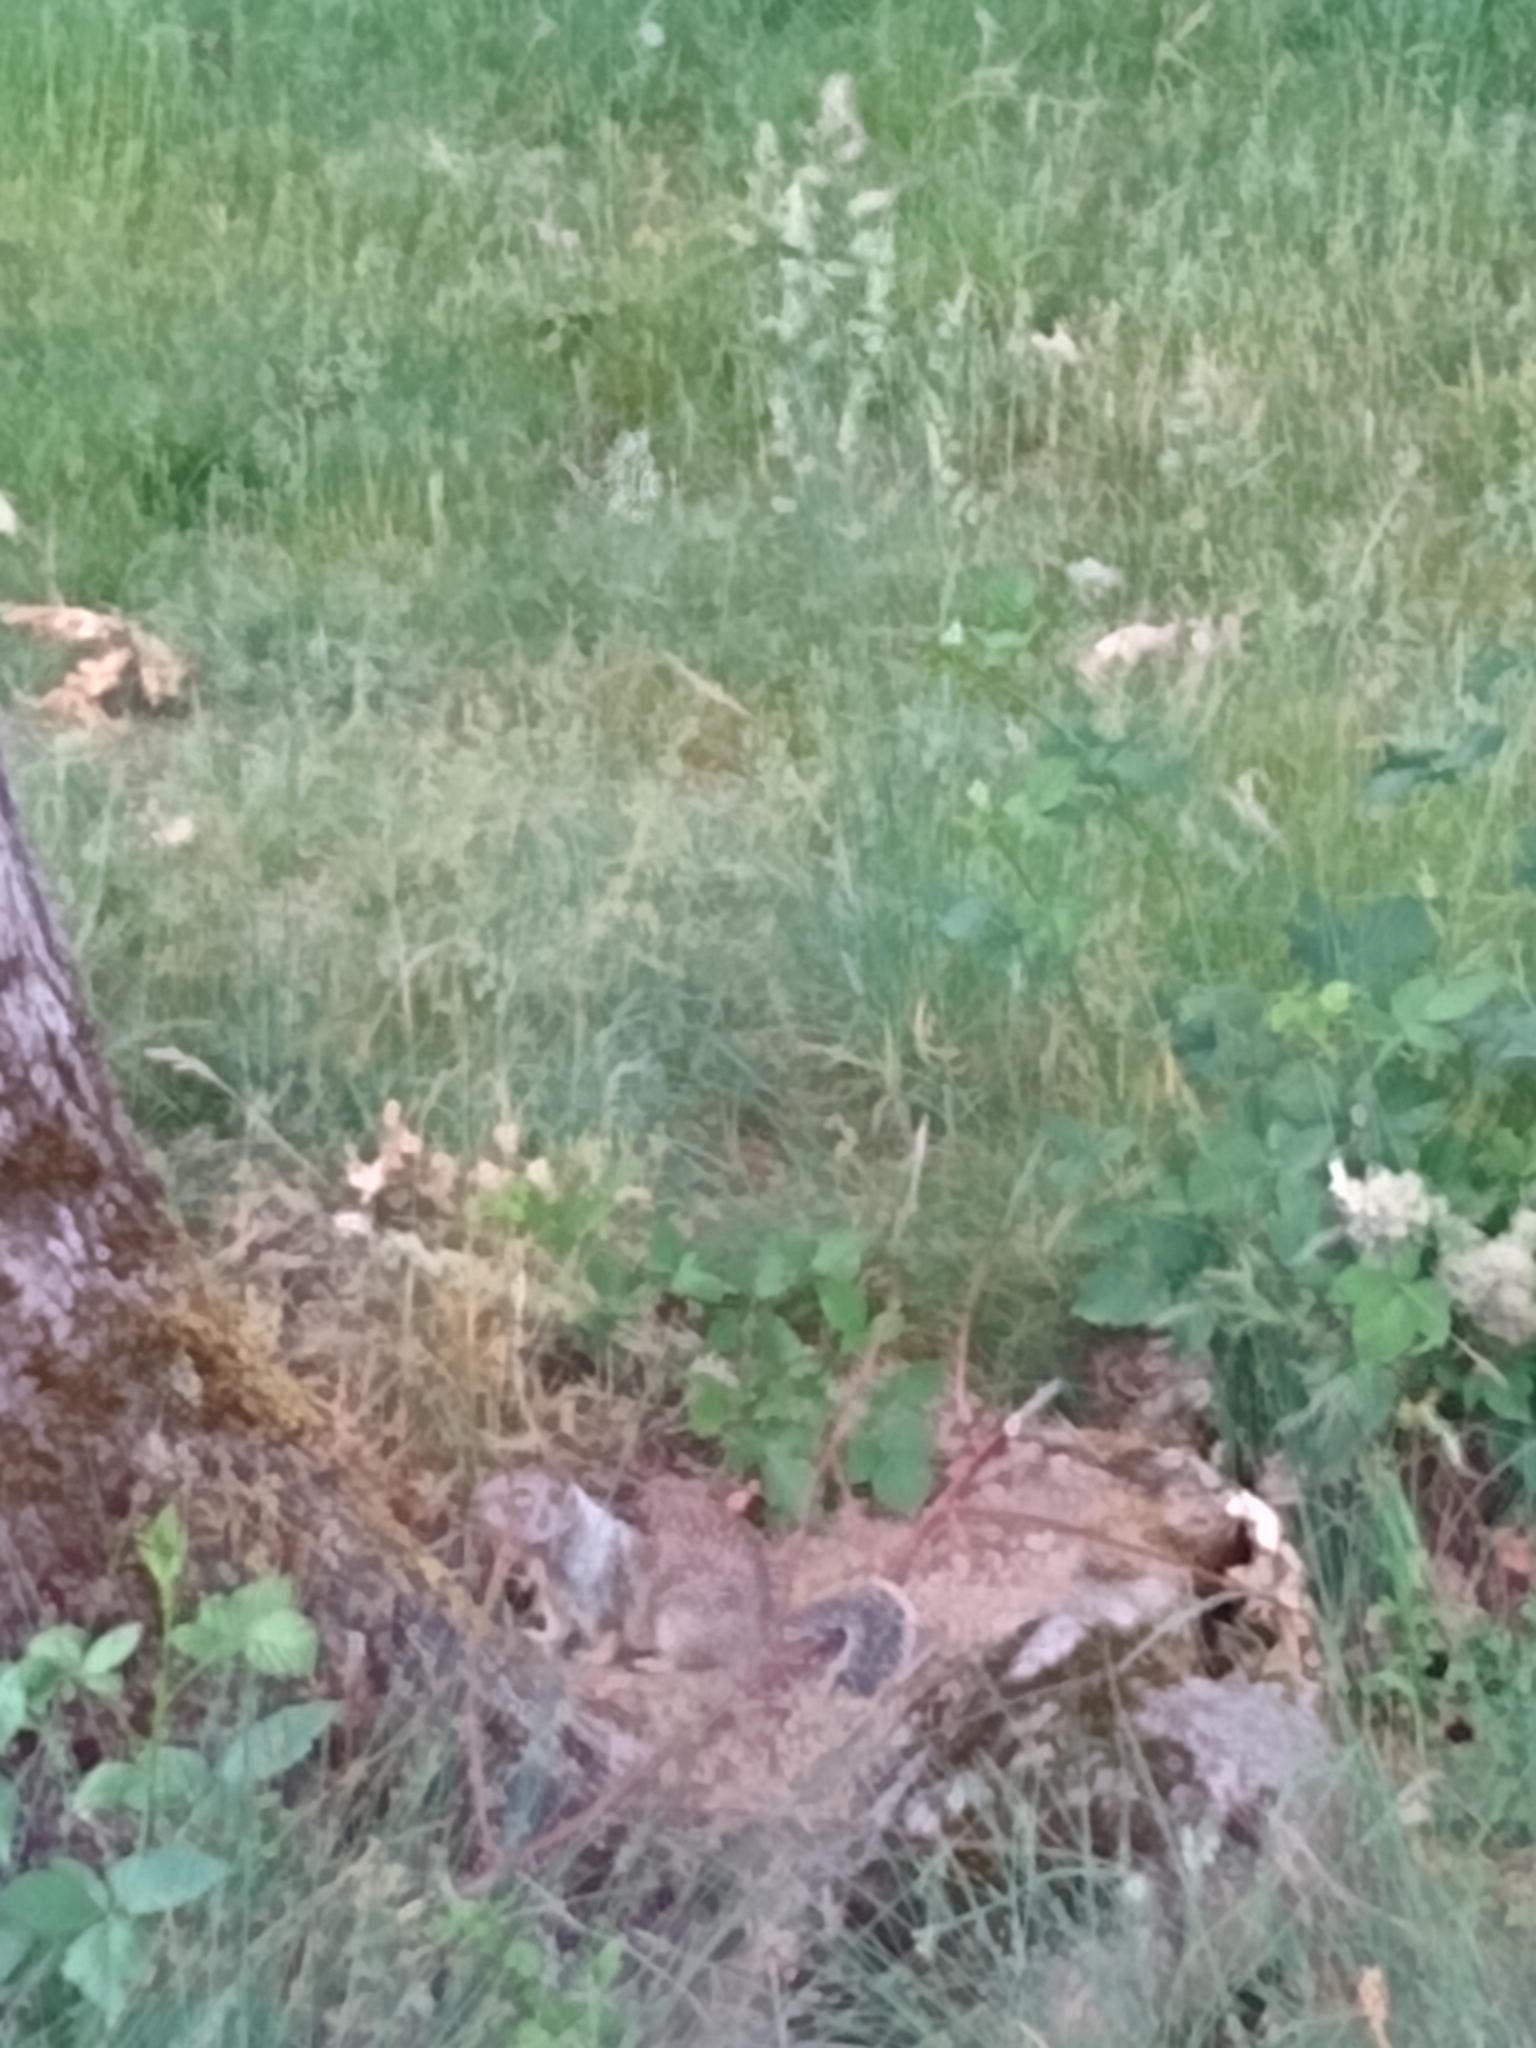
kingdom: Animalia
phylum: Chordata
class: Mammalia
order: Rodentia
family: Sciuridae
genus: Otospermophilus
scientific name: Otospermophilus beecheyi
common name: California ground squirrel
